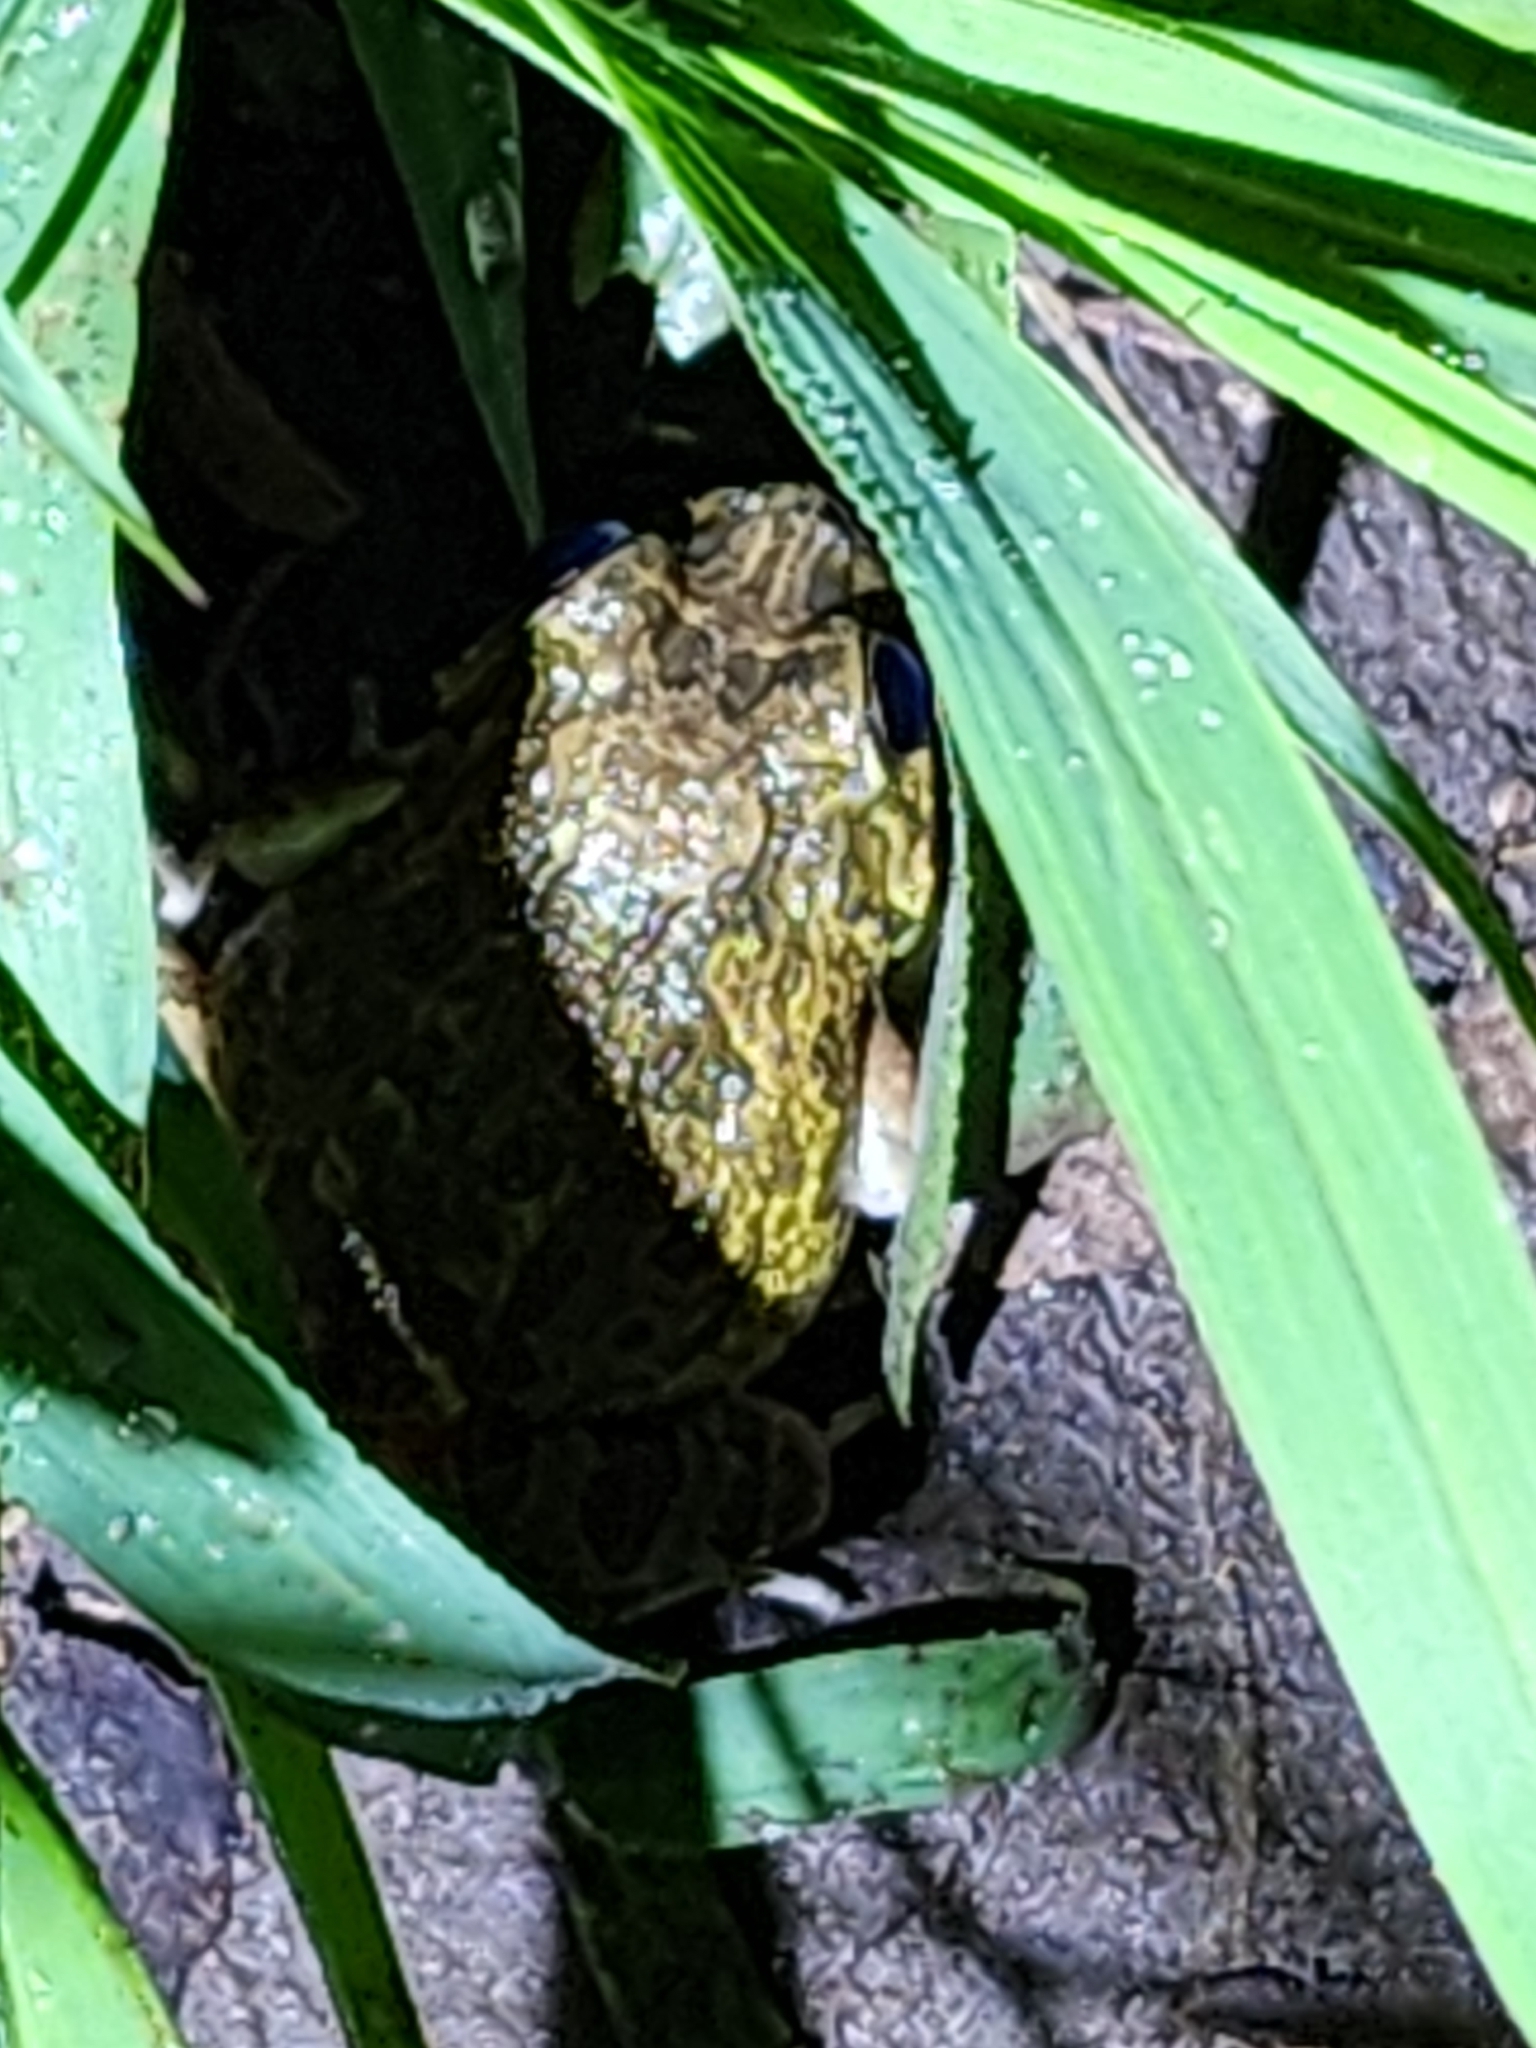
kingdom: Animalia
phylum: Chordata
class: Amphibia
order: Anura
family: Limnodynastidae
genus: Platyplectrum
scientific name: Platyplectrum ornatum
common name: Ornate burrowing frog
